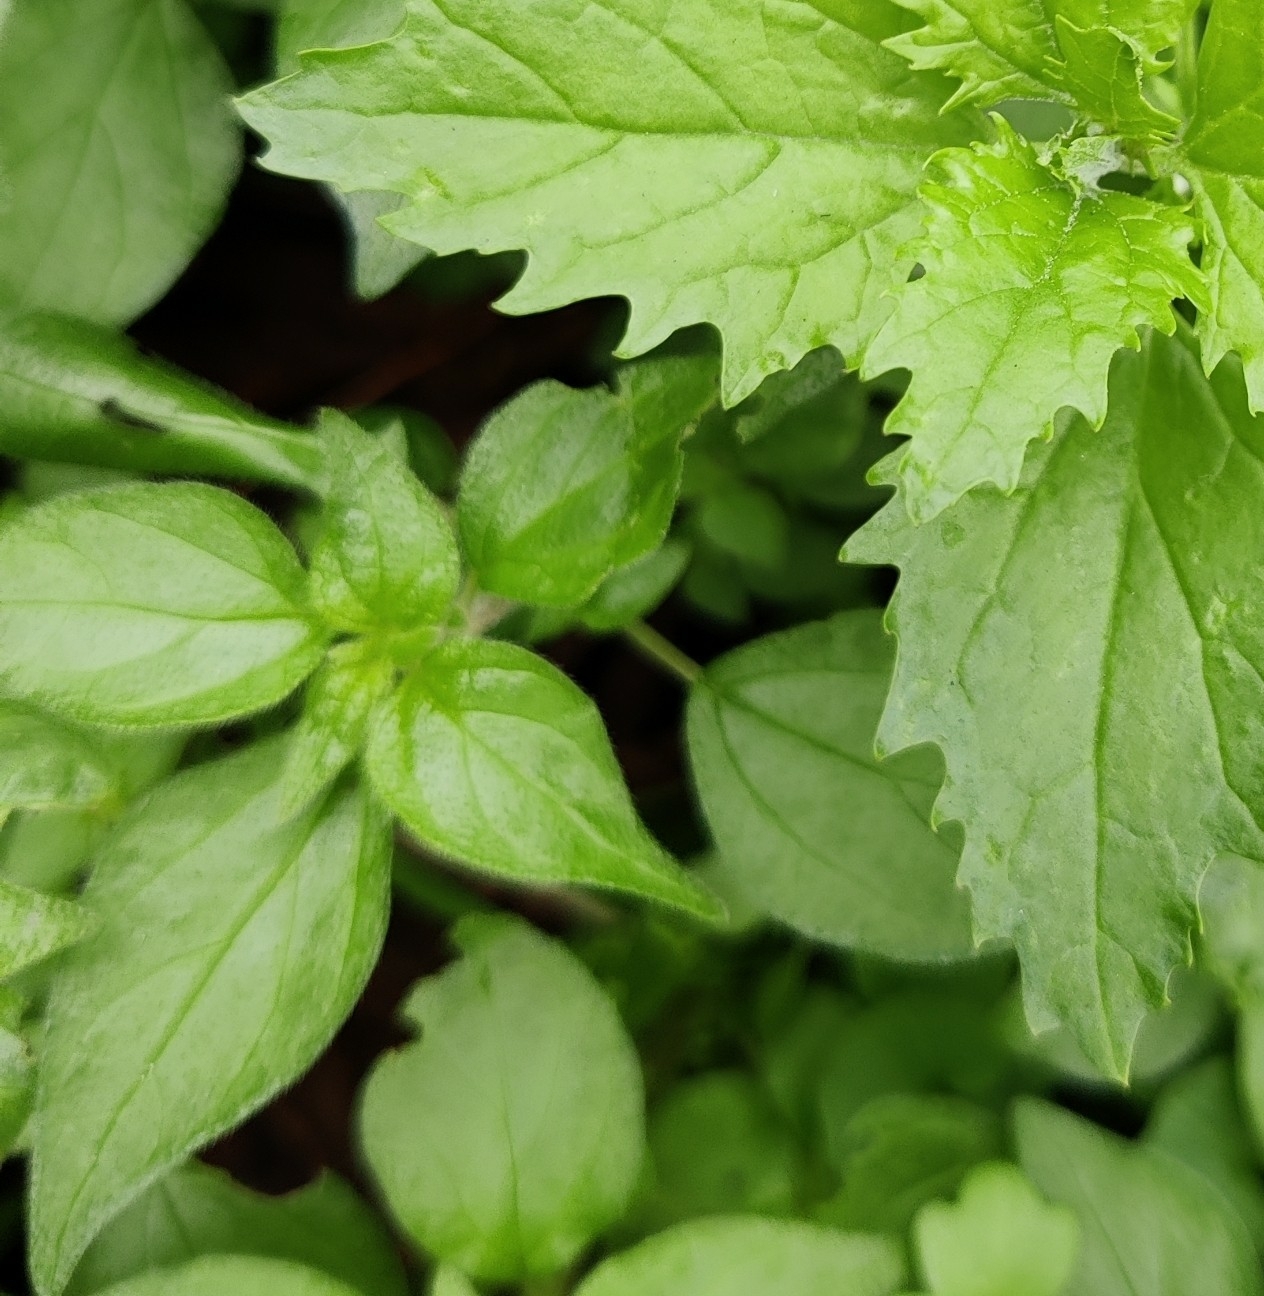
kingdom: Plantae
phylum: Tracheophyta
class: Magnoliopsida
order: Rosales
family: Urticaceae
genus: Parietaria
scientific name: Parietaria judaica
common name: Pellitory-of-the-wall
